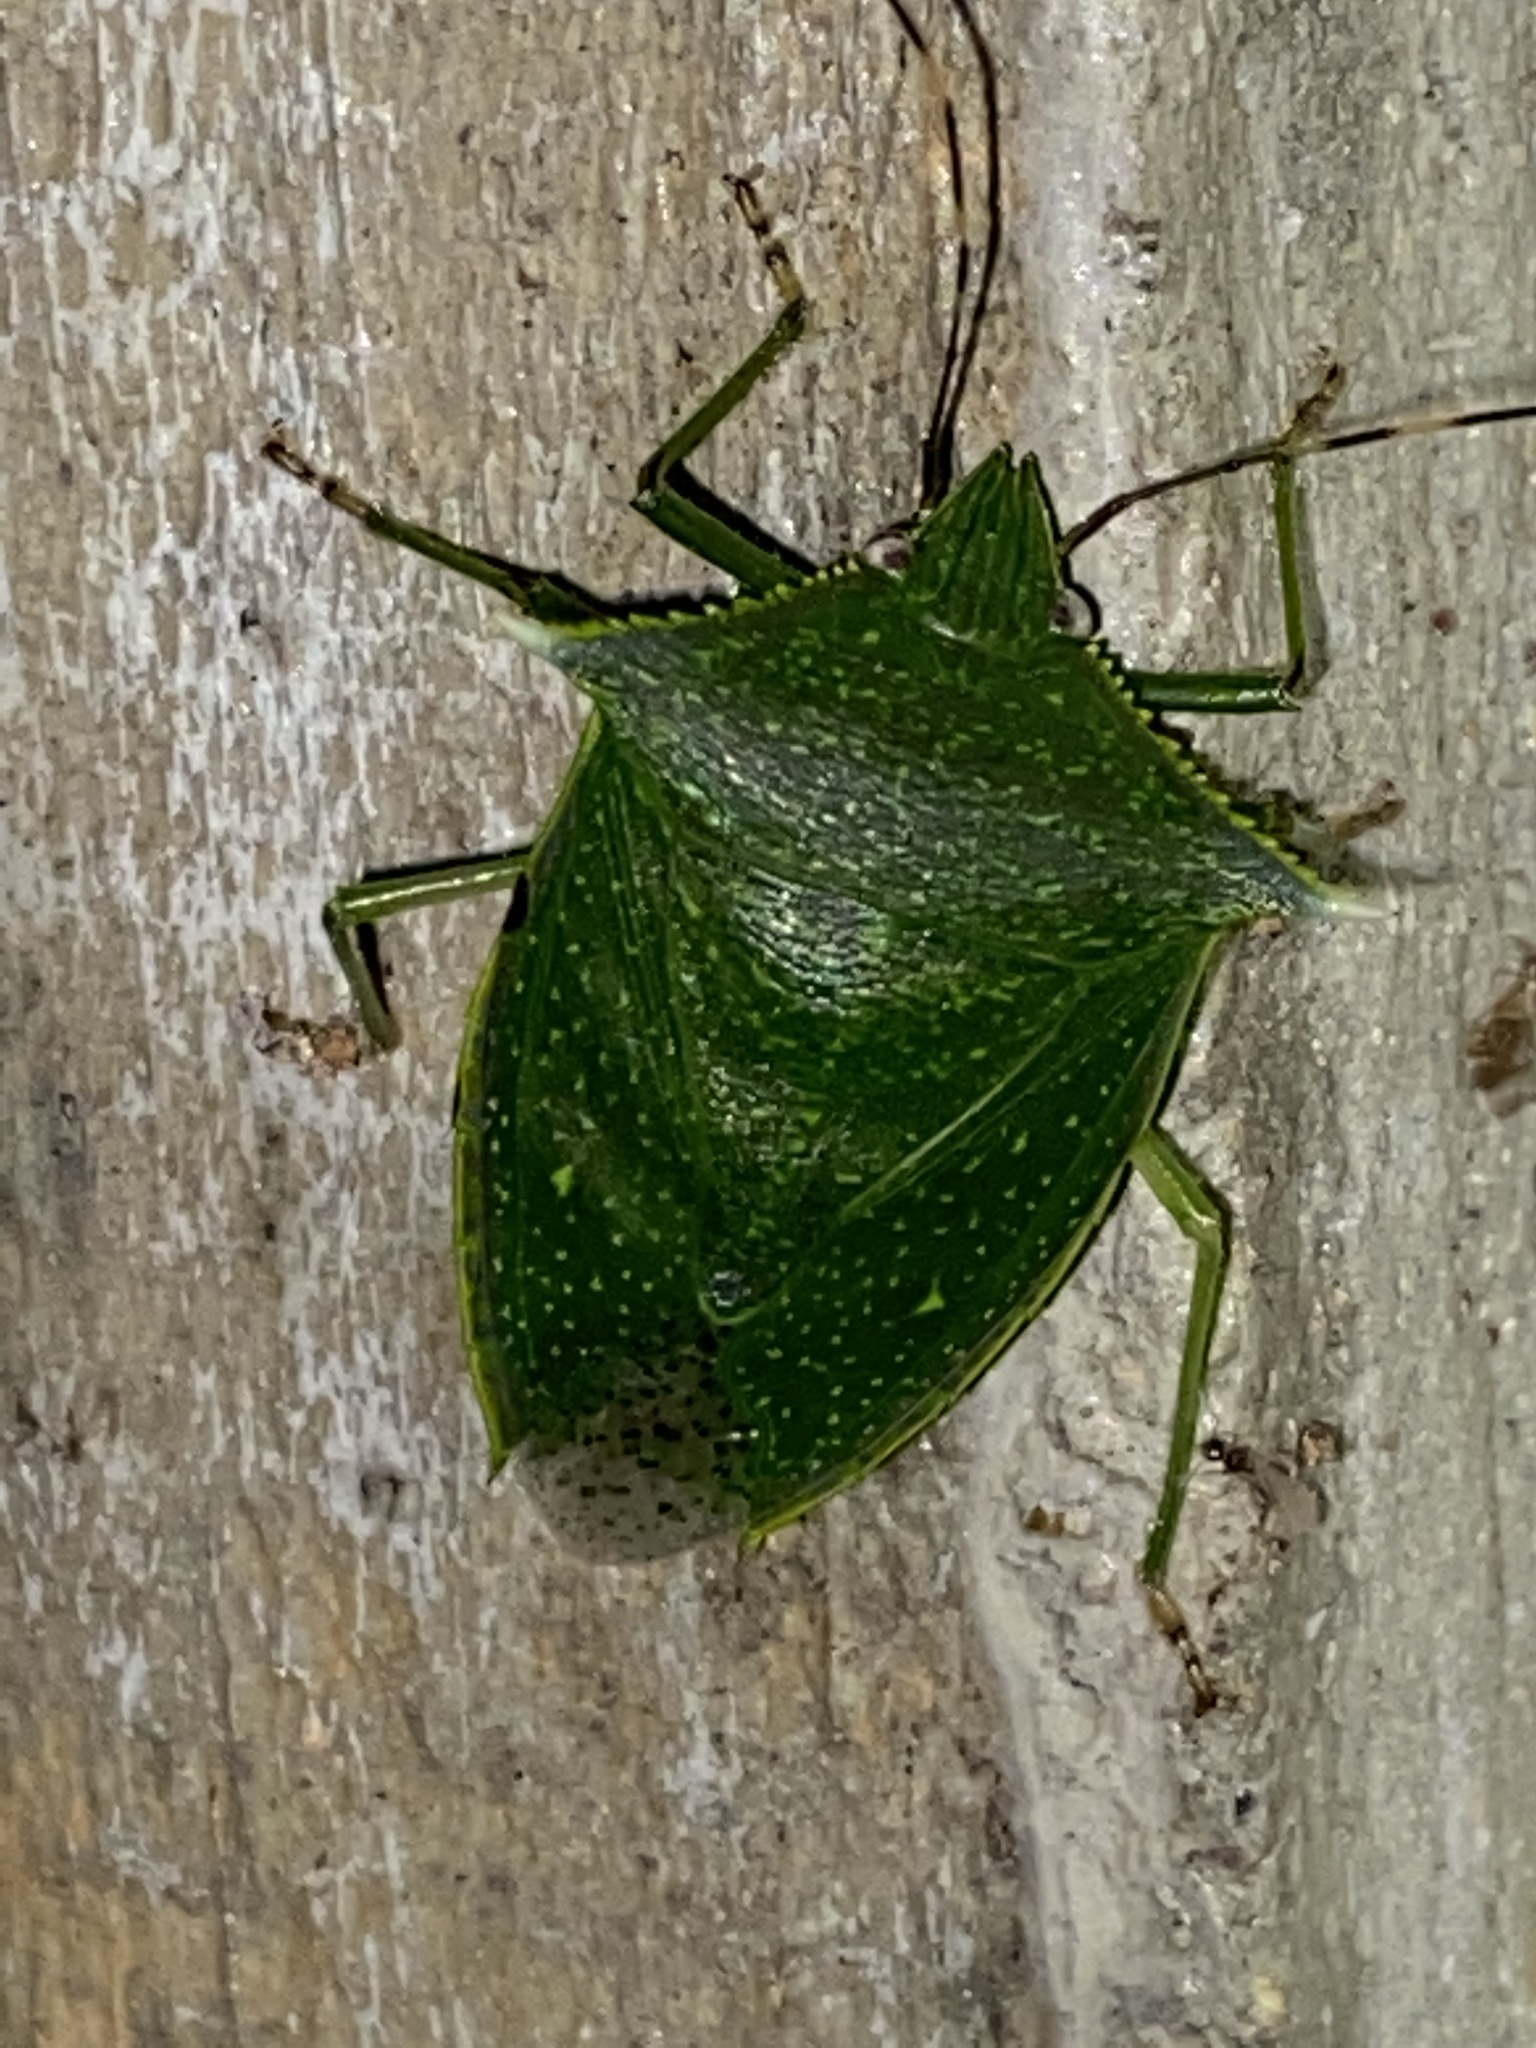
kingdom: Animalia
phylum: Arthropoda
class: Insecta
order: Hemiptera
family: Pentatomidae
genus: Loxa
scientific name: Loxa viridis
